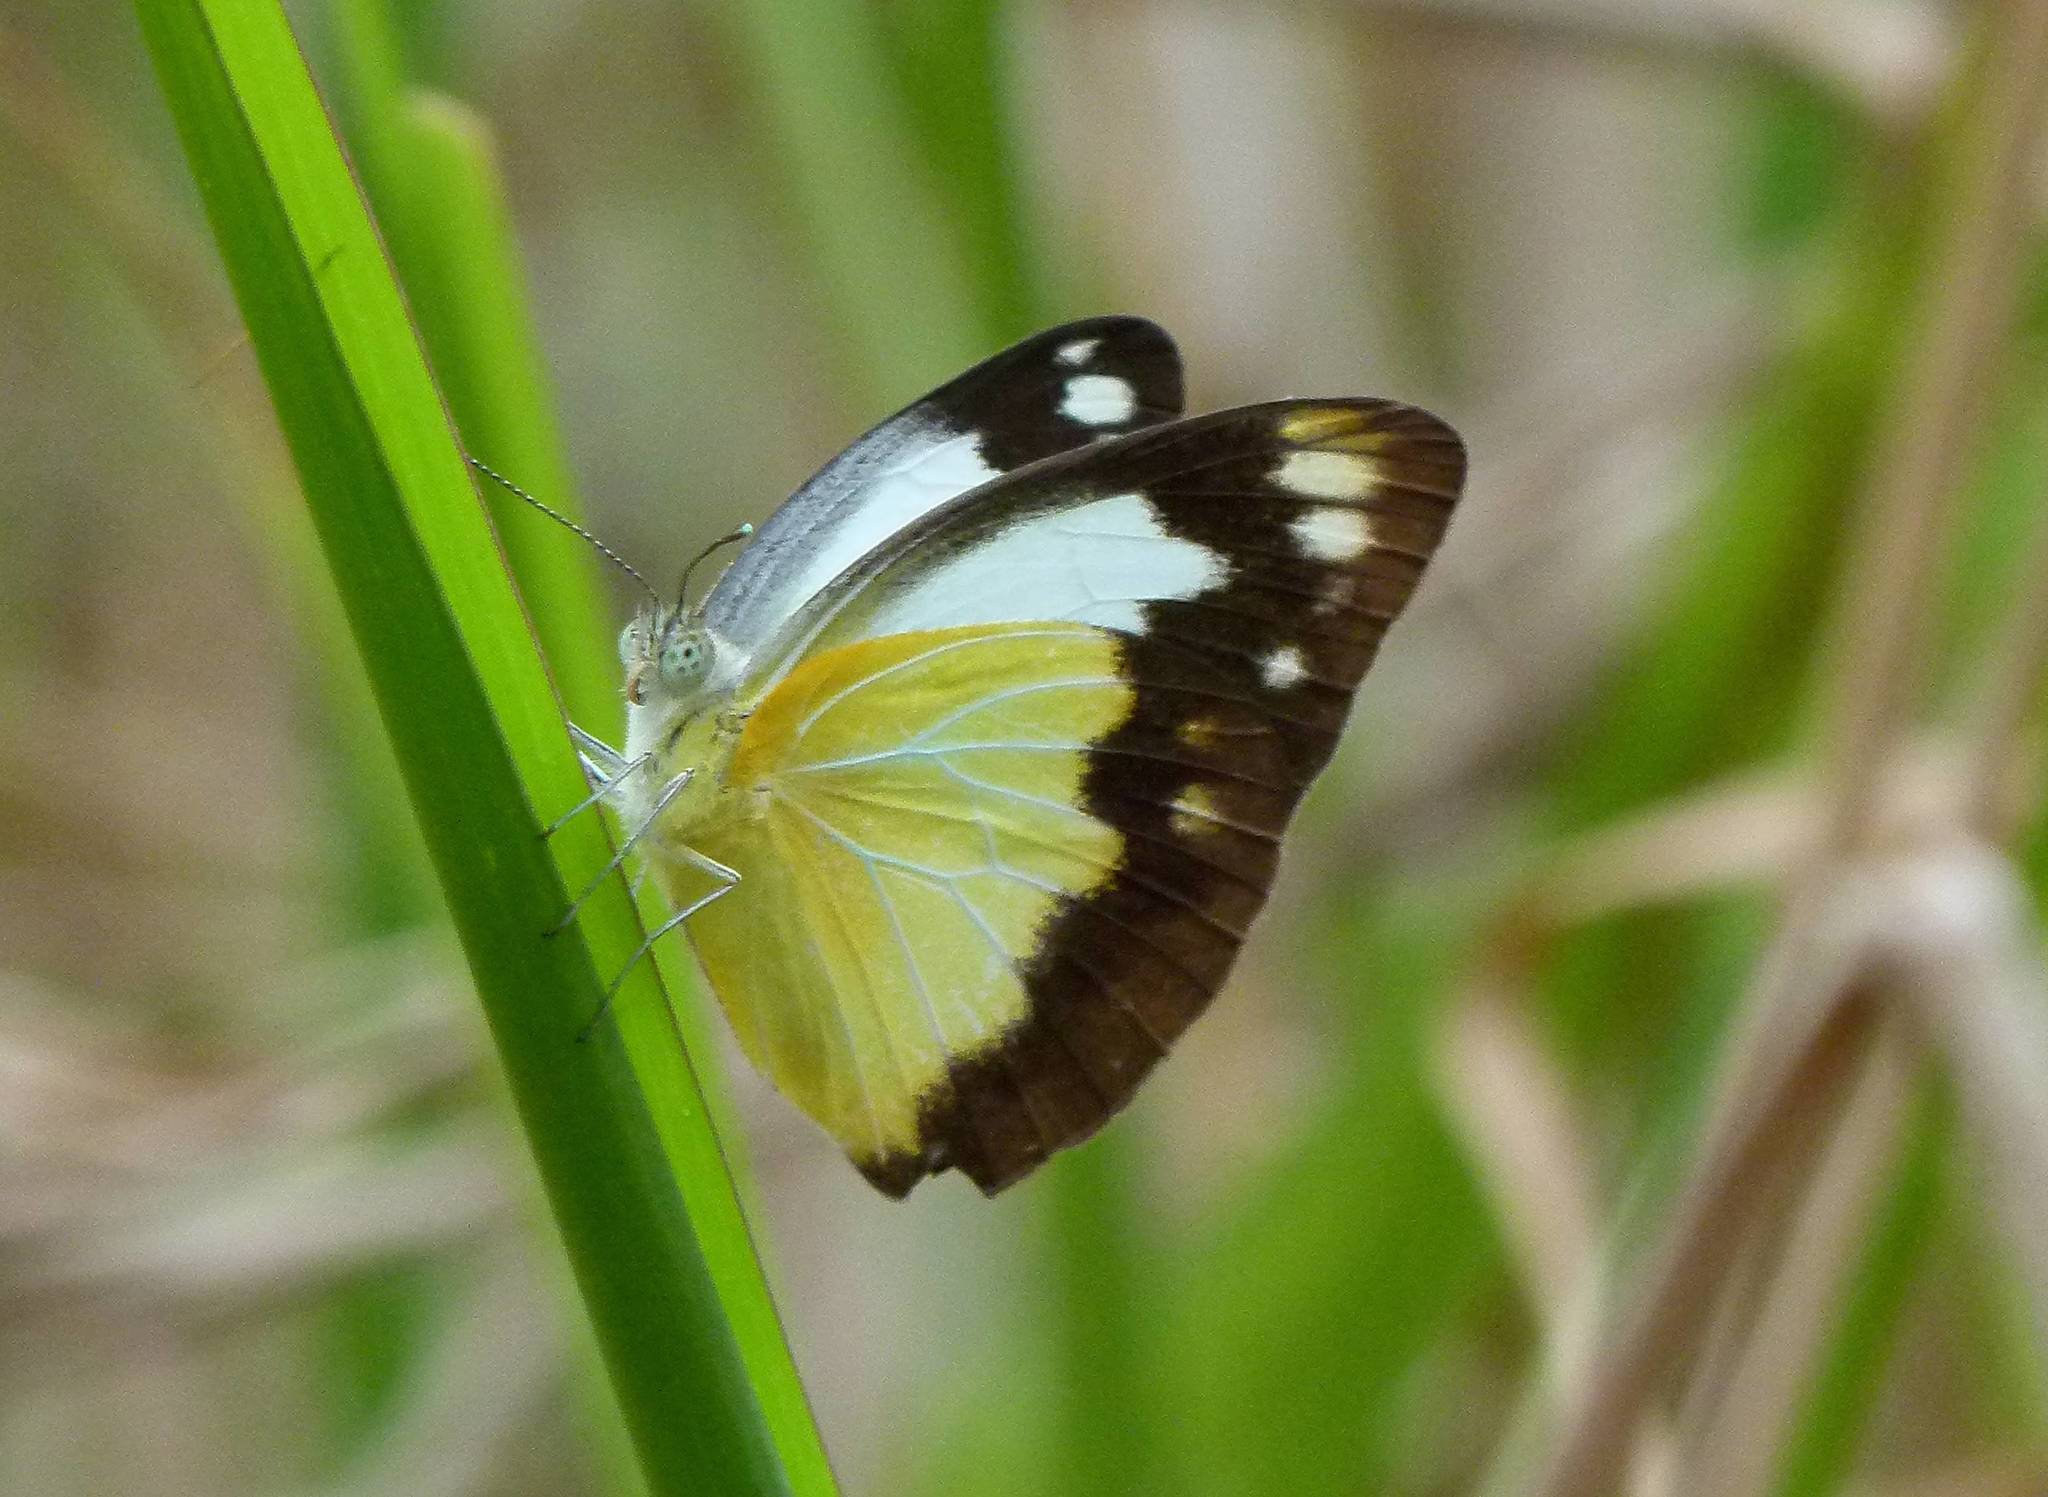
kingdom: Animalia
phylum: Arthropoda
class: Insecta
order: Lepidoptera
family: Pieridae
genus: Cepora
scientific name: Cepora perimale
